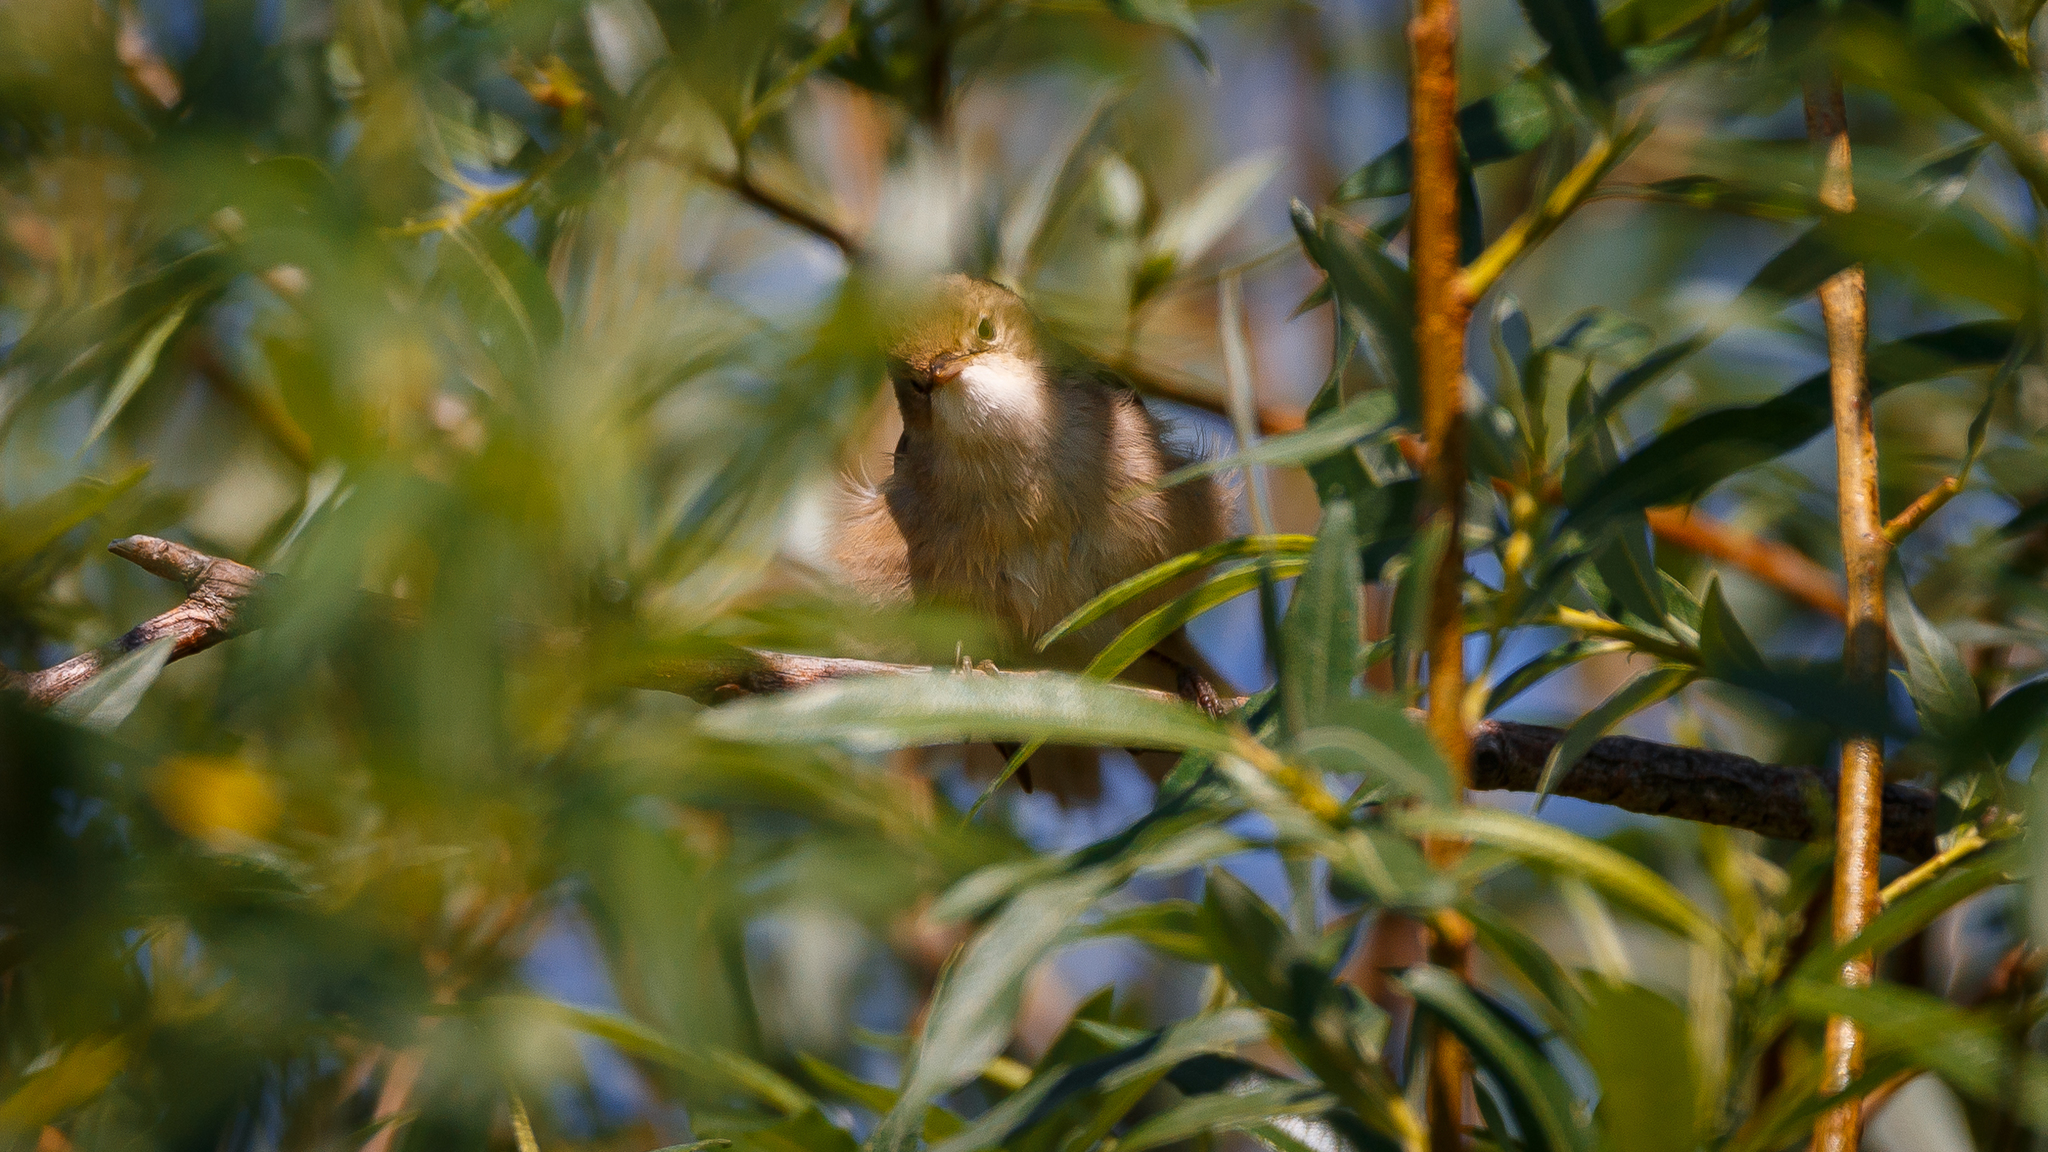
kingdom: Animalia
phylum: Chordata
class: Aves
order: Passeriformes
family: Acrocephalidae
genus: Acrocephalus
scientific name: Acrocephalus dumetorum
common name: Blyth's reed warbler
